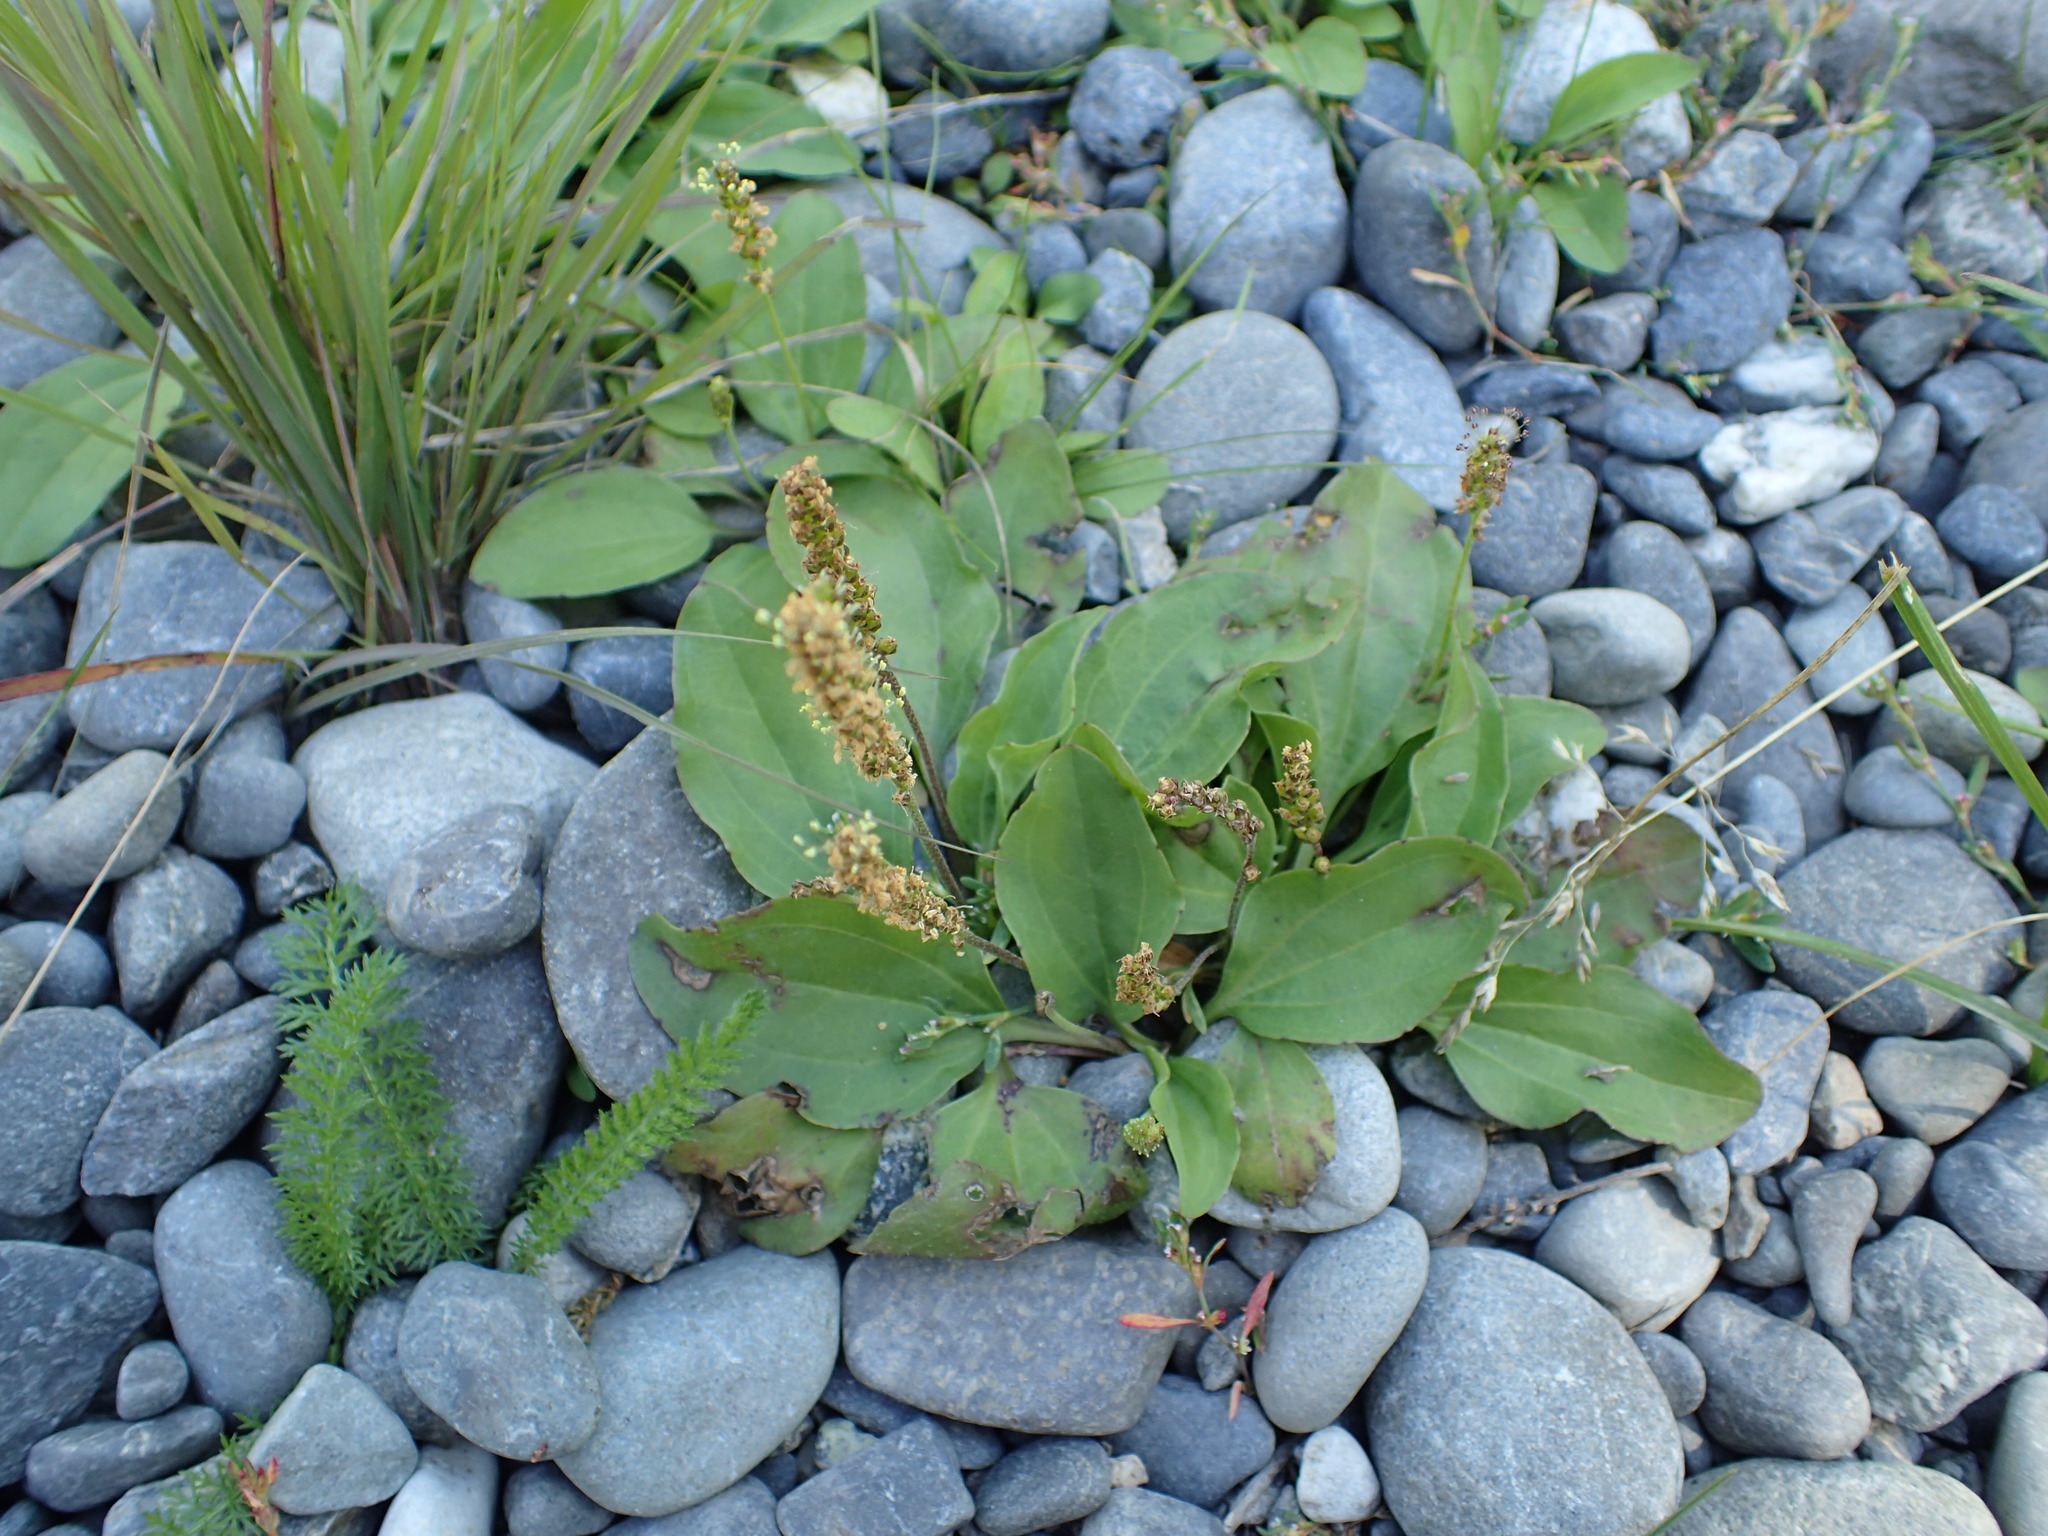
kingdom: Plantae
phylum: Tracheophyta
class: Magnoliopsida
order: Lamiales
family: Plantaginaceae
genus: Plantago
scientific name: Plantago major
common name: Common plantain
